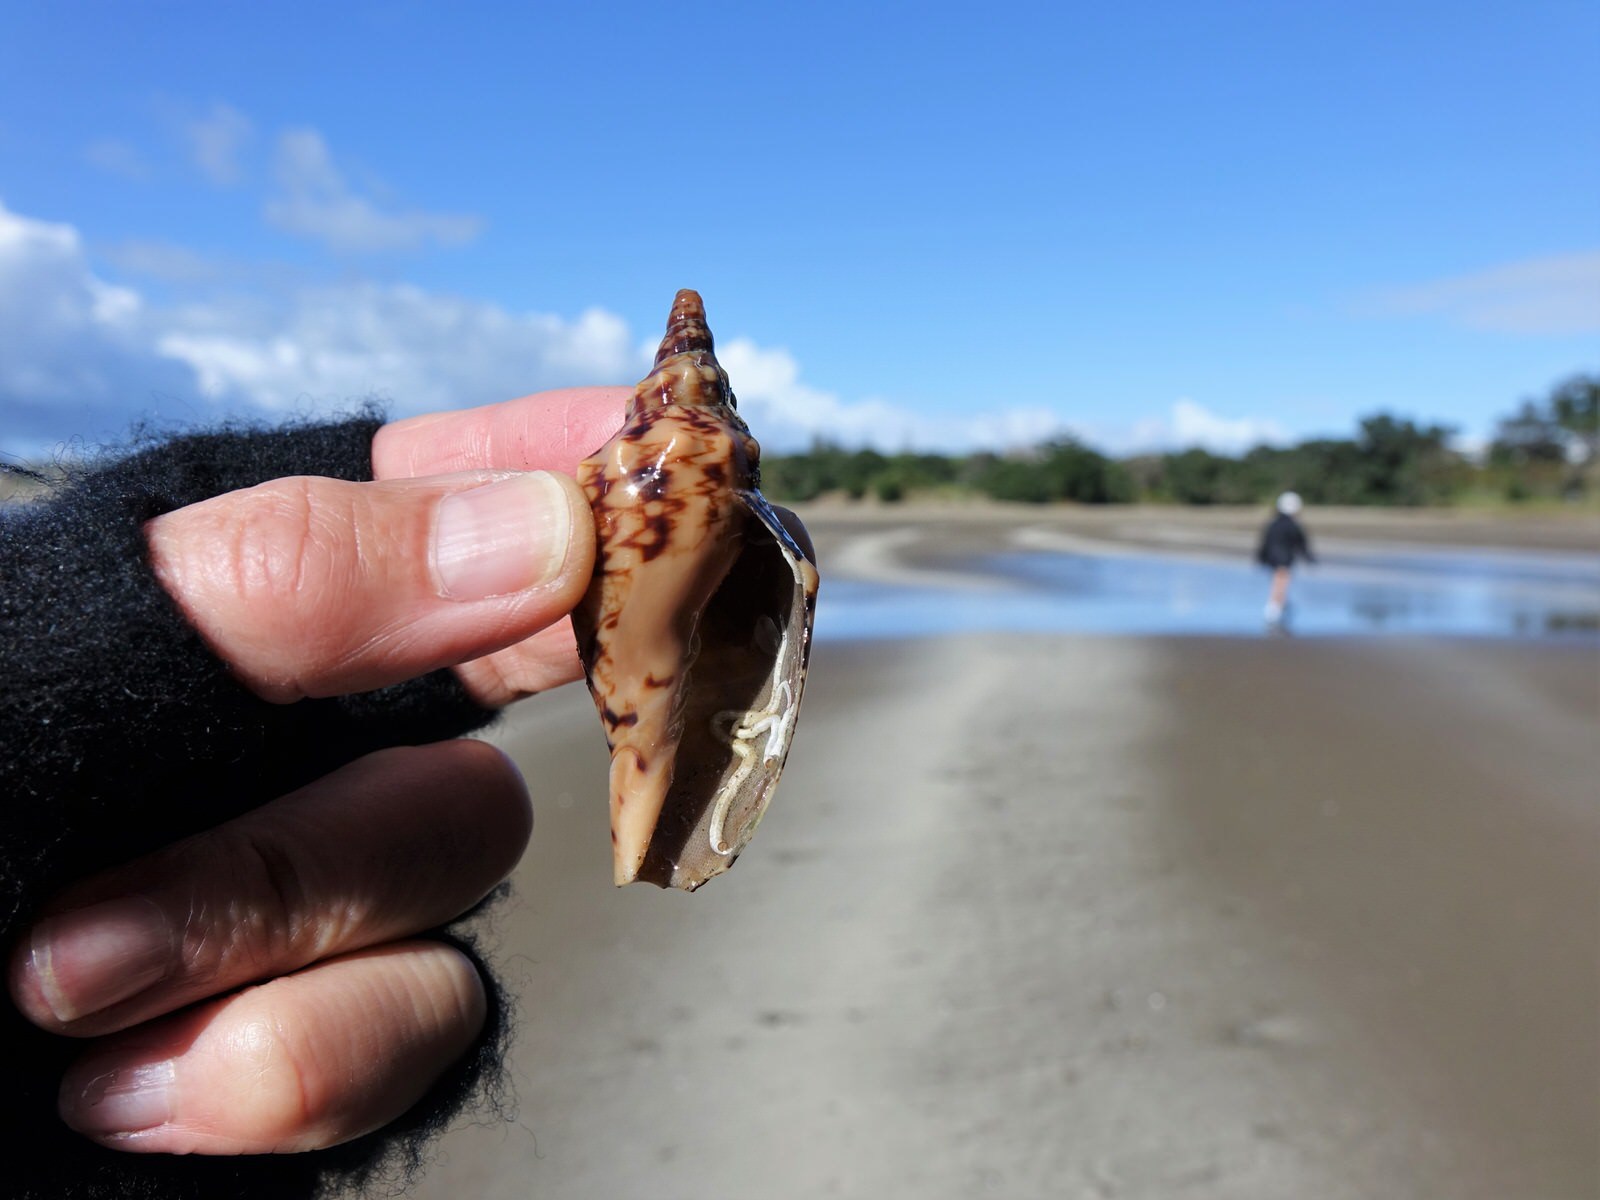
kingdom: Animalia
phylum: Mollusca
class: Gastropoda
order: Neogastropoda
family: Volutidae
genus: Alcithoe
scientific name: Alcithoe arabica
